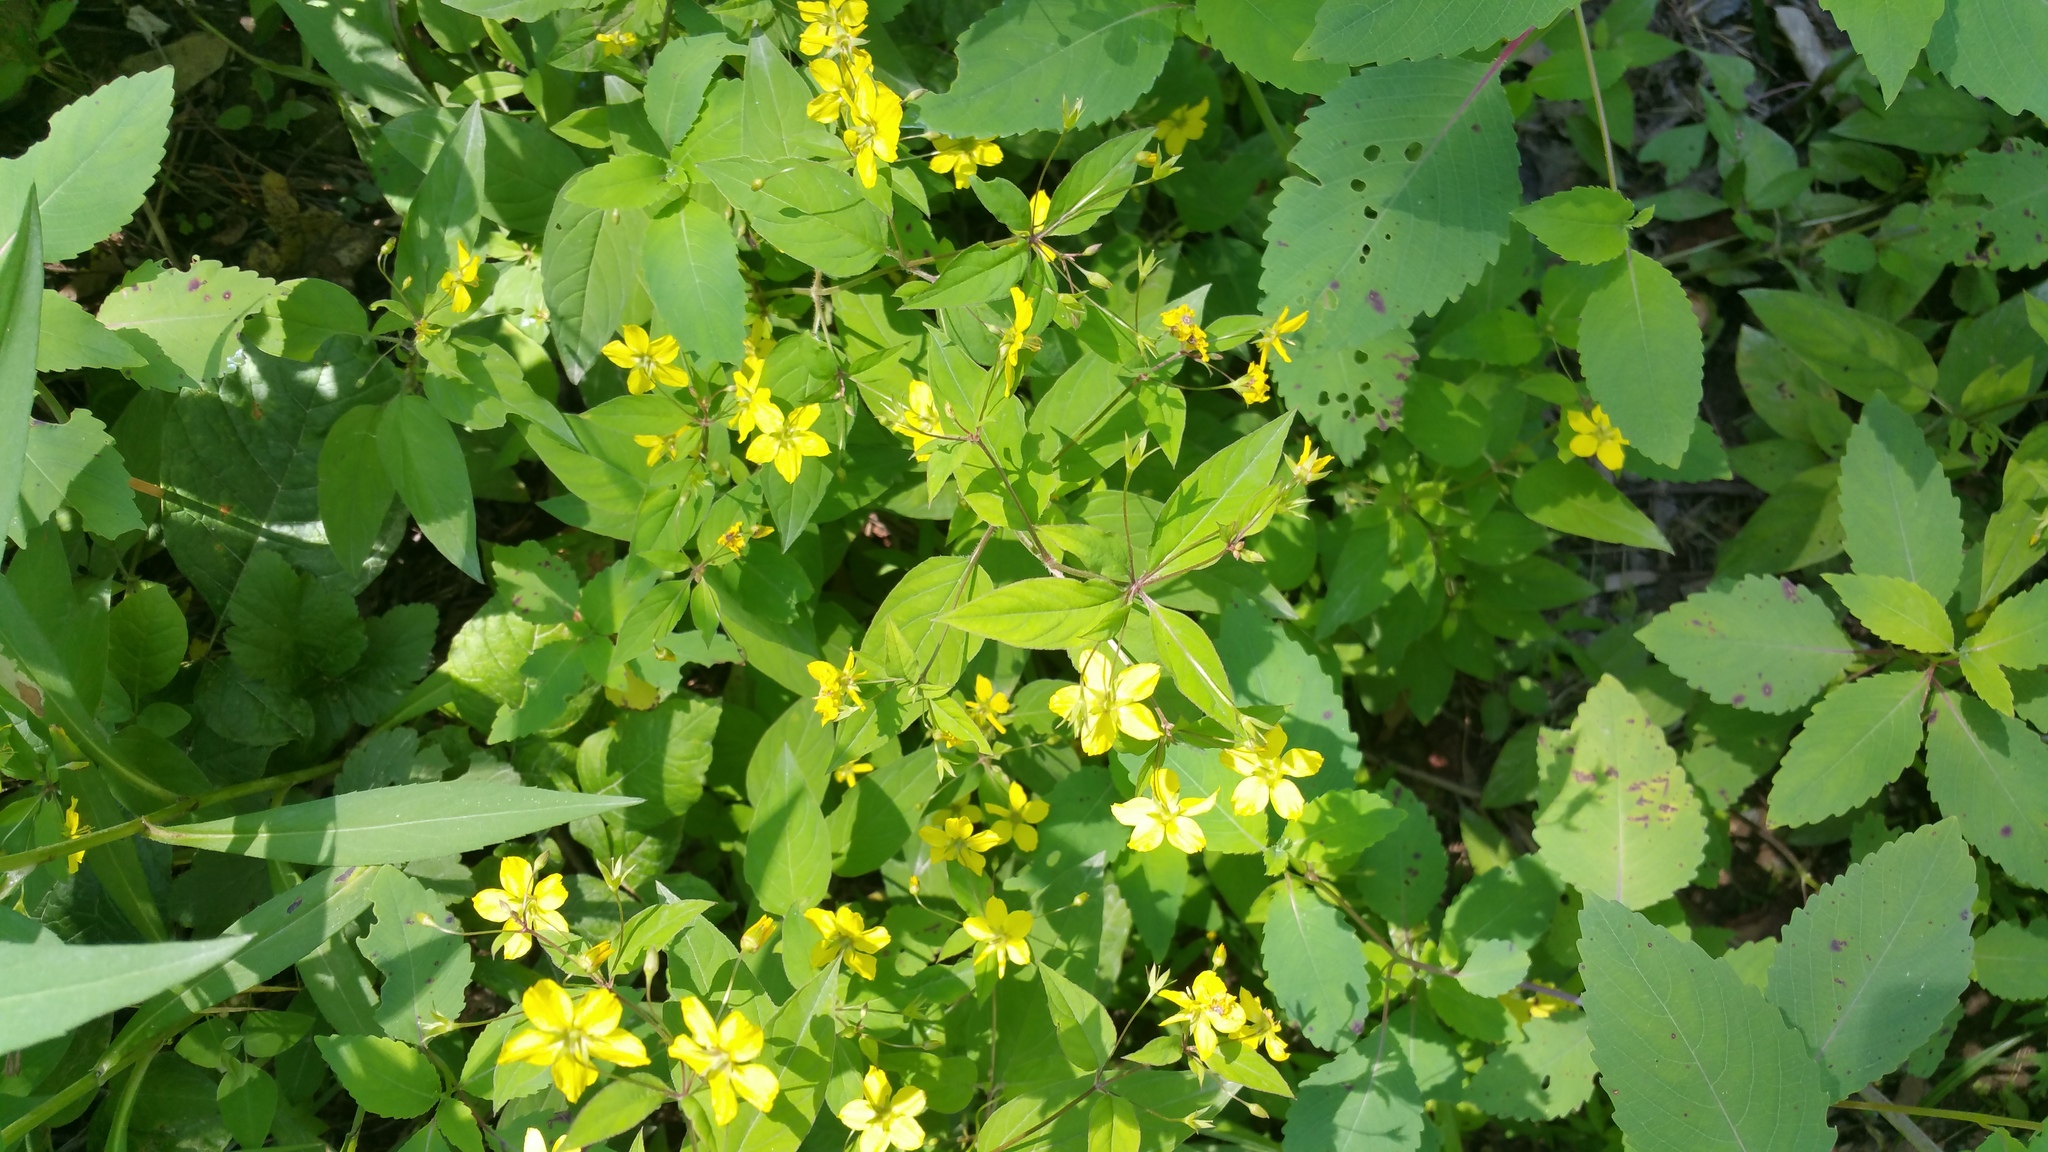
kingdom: Plantae
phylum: Tracheophyta
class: Magnoliopsida
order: Ericales
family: Primulaceae
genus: Lysimachia
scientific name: Lysimachia ciliata
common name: Fringed loosestrife
